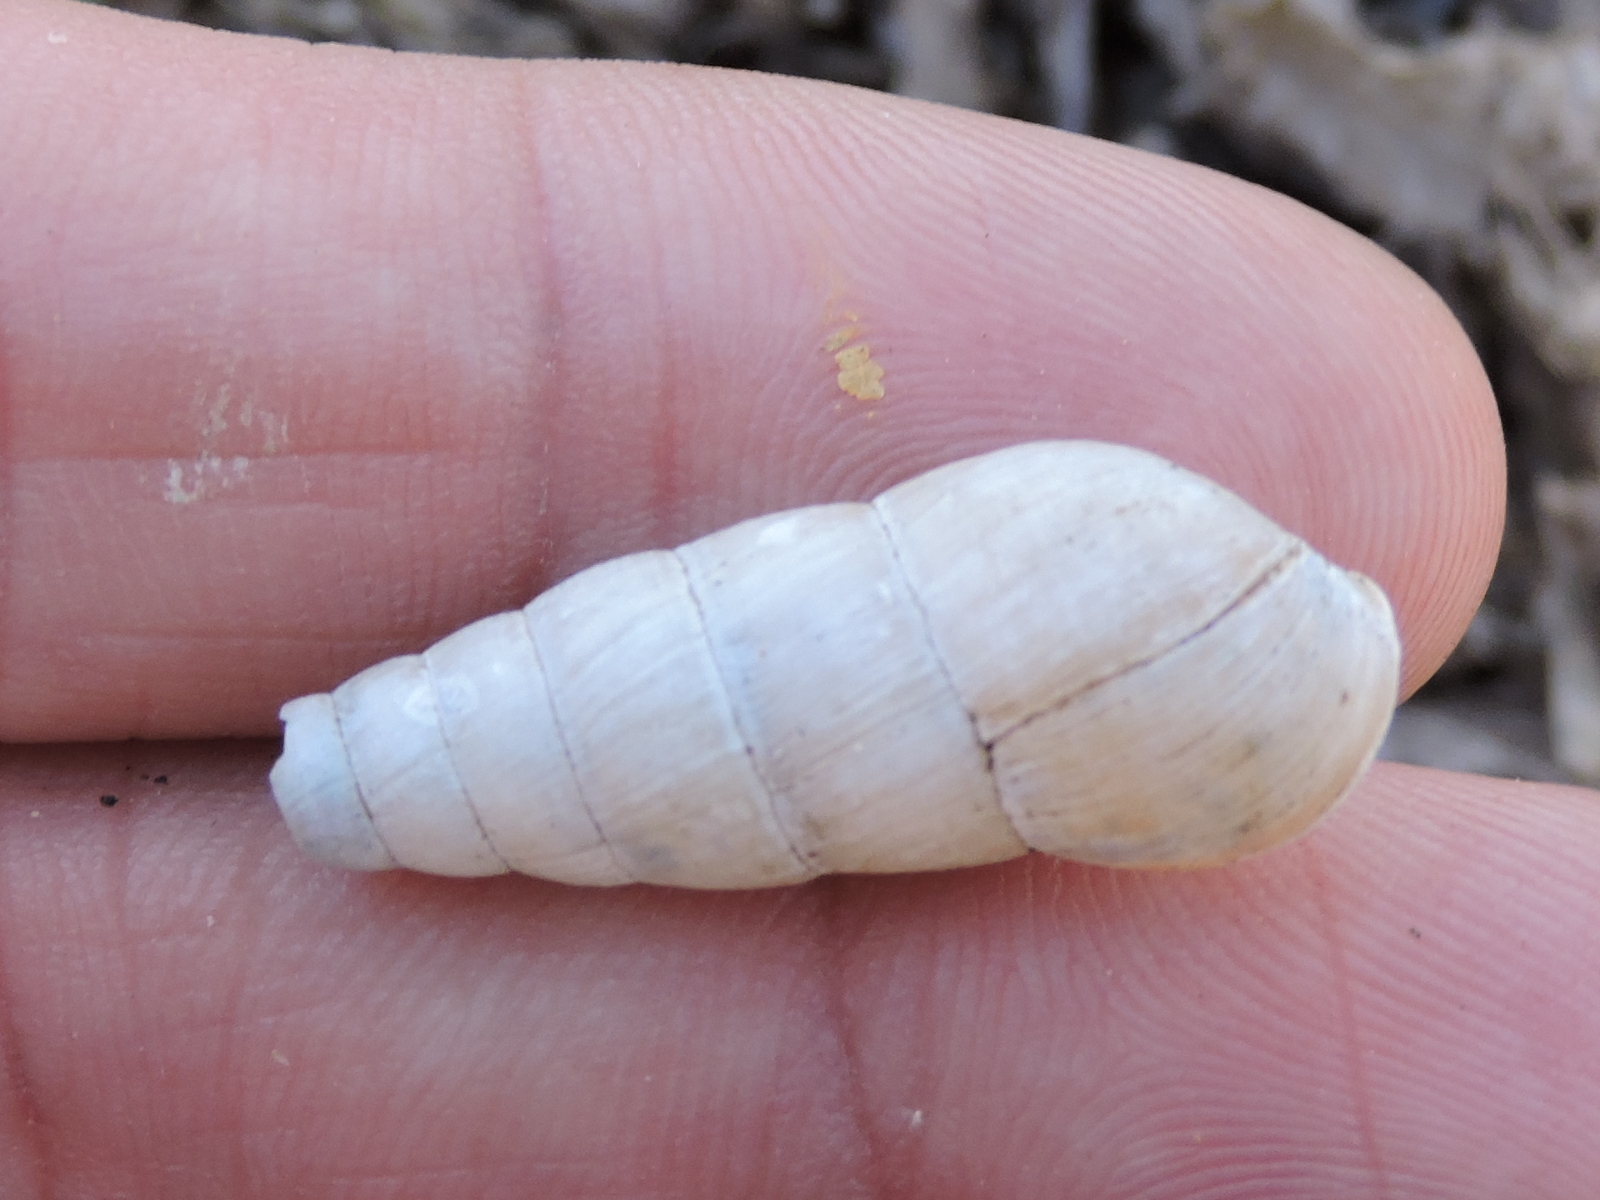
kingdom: Animalia
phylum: Mollusca
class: Gastropoda
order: Stylommatophora
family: Achatinidae
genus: Rumina
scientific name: Rumina decollata
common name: Decollate snail
